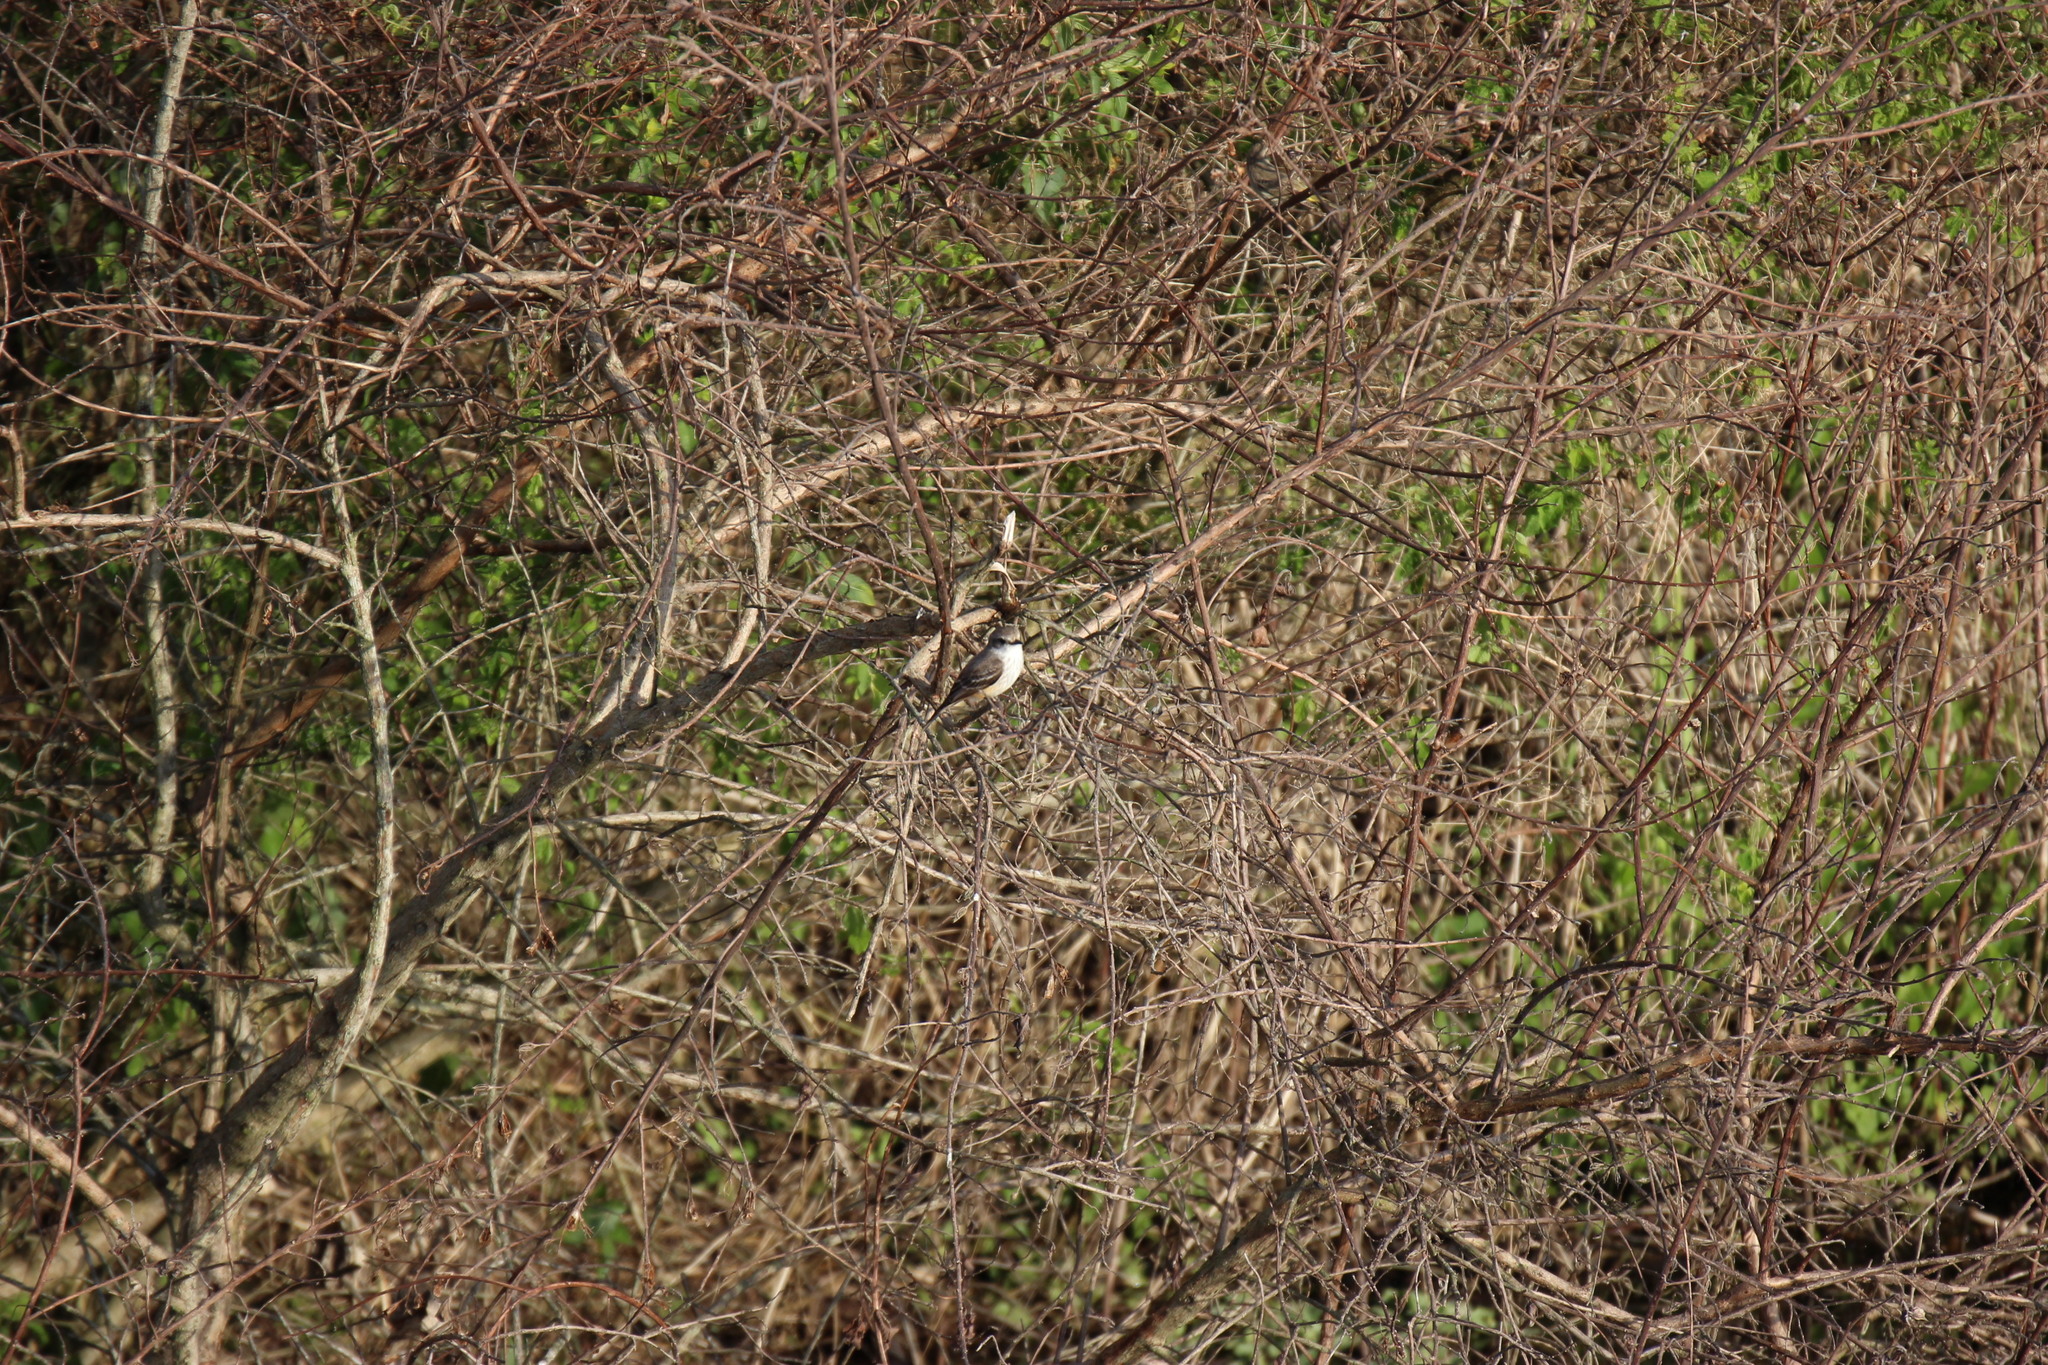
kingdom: Animalia
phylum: Chordata
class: Aves
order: Passeriformes
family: Tyrannidae
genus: Pyrocephalus
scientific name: Pyrocephalus rubinus
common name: Vermilion flycatcher
